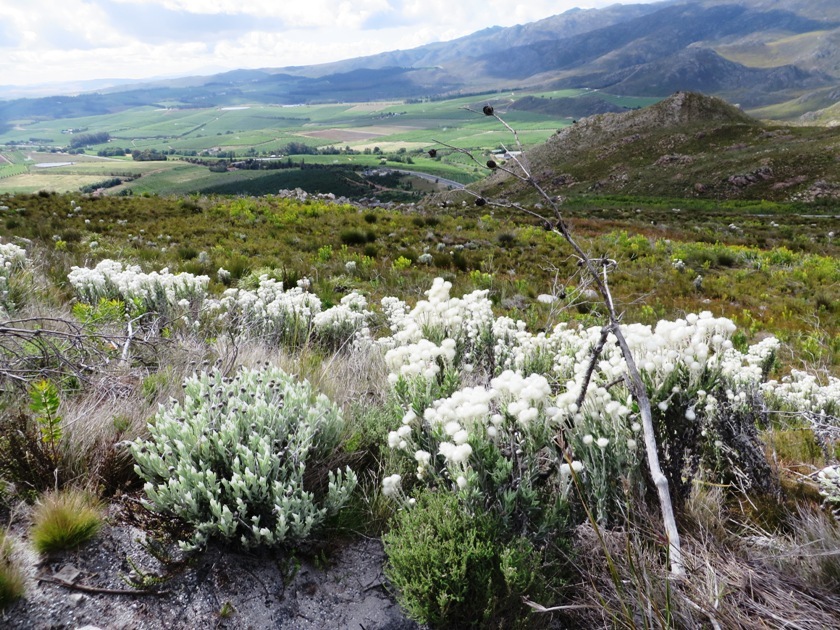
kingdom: Plantae
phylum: Tracheophyta
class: Magnoliopsida
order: Asterales
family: Asteraceae
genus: Syncarpha
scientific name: Syncarpha vestita
